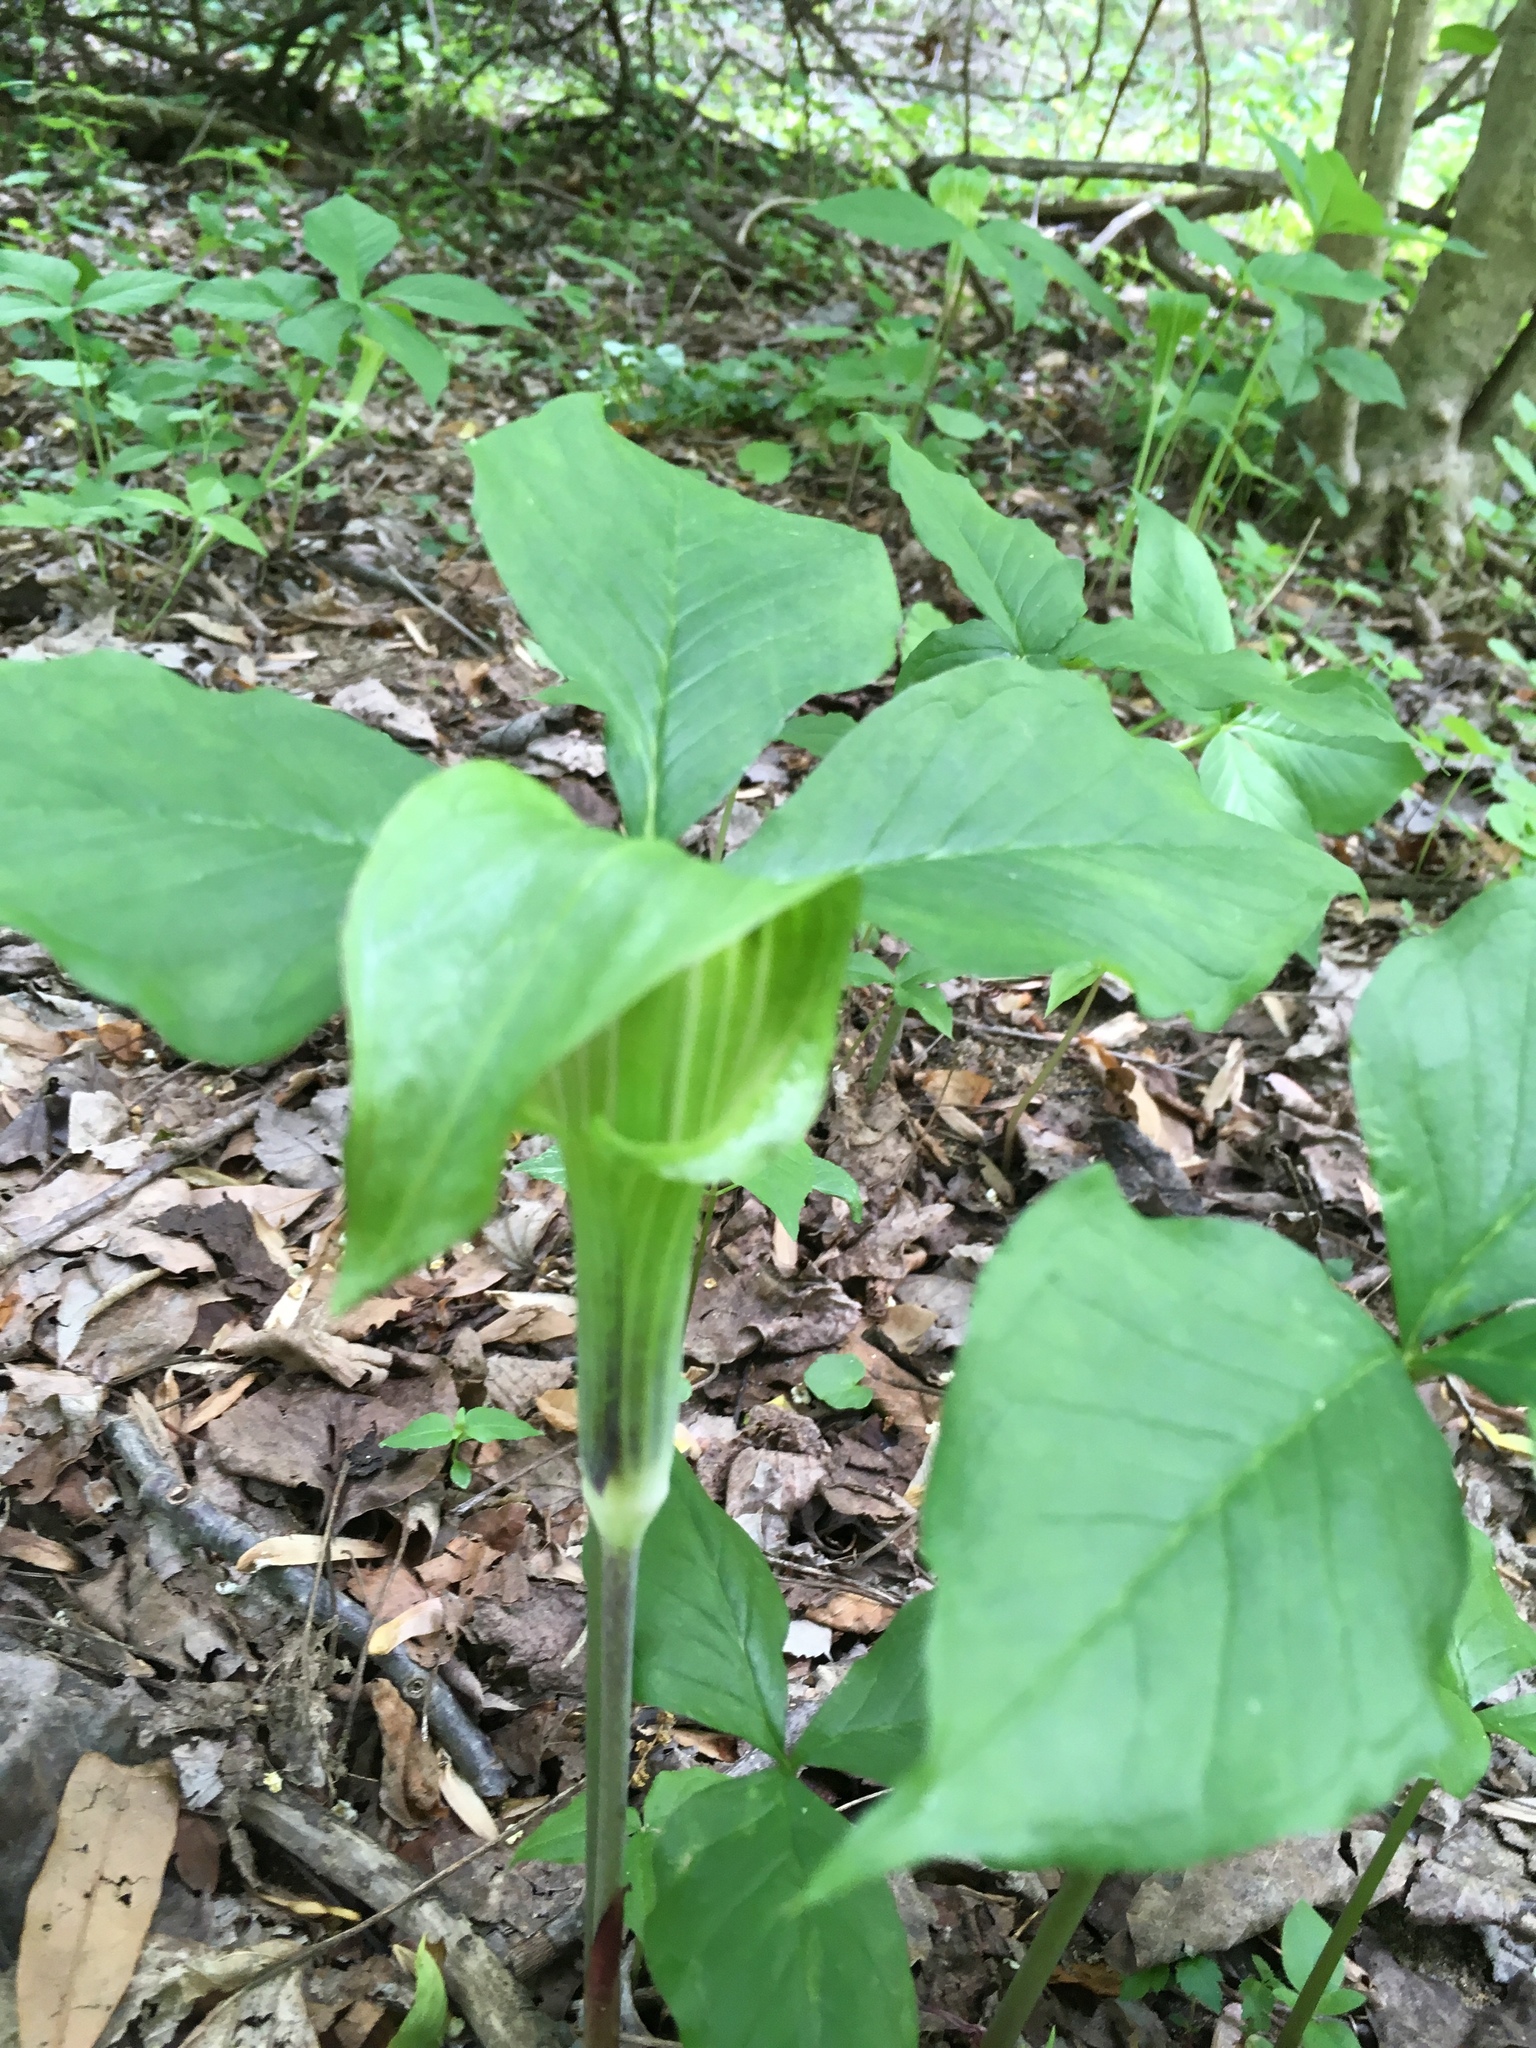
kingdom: Plantae
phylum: Tracheophyta
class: Liliopsida
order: Alismatales
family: Araceae
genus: Arisaema
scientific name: Arisaema triphyllum
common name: Jack-in-the-pulpit
